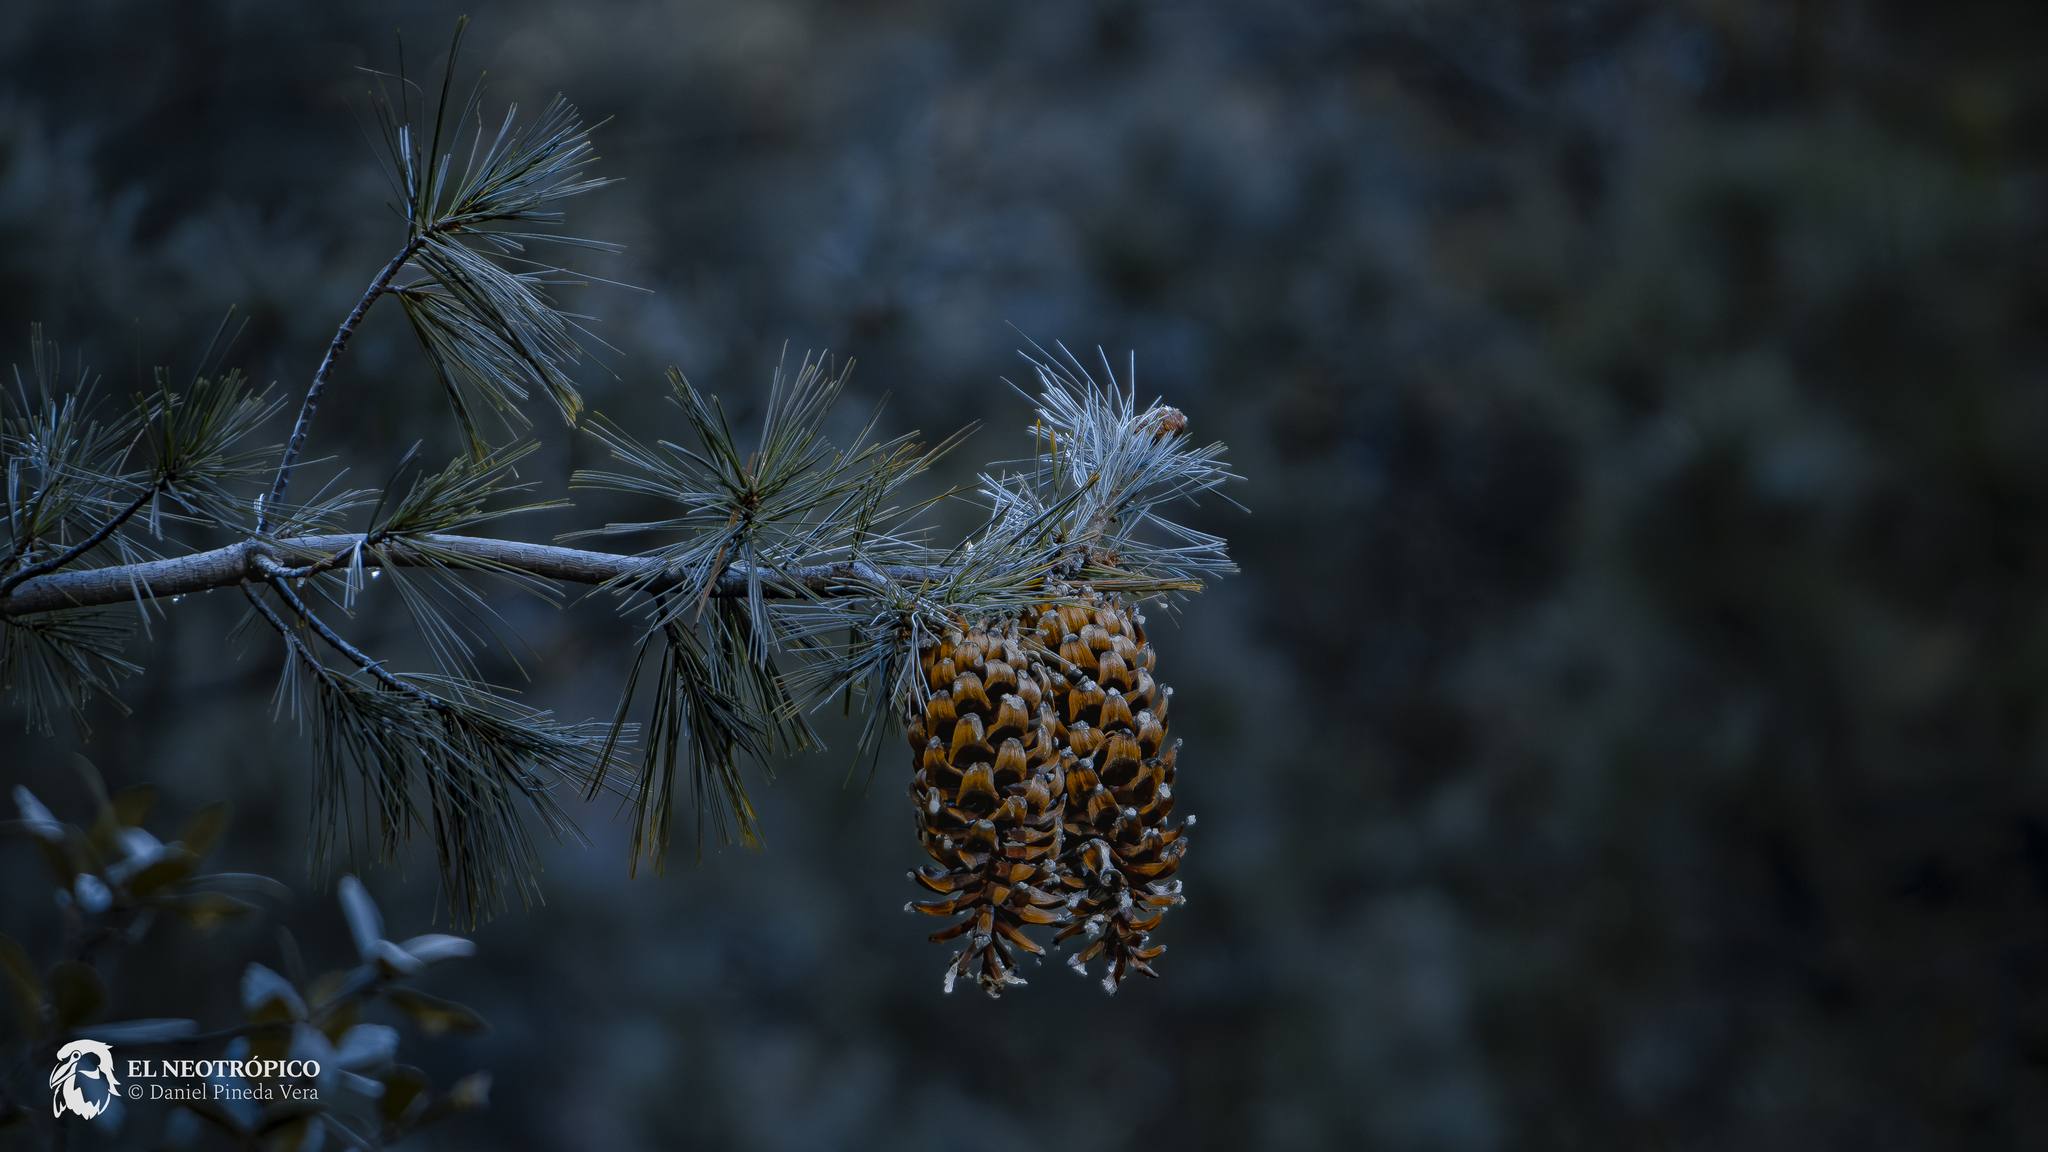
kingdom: Plantae
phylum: Tracheophyta
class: Pinopsida
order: Pinales
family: Pinaceae
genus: Pinus
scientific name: Pinus strobiformis
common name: Southwestern white pine
